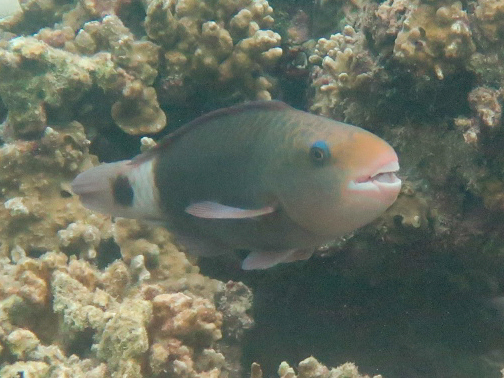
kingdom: Animalia
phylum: Chordata
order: Perciformes
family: Scaridae
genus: Chlorurus
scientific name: Chlorurus sordidus
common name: Bullethead parrotfish
